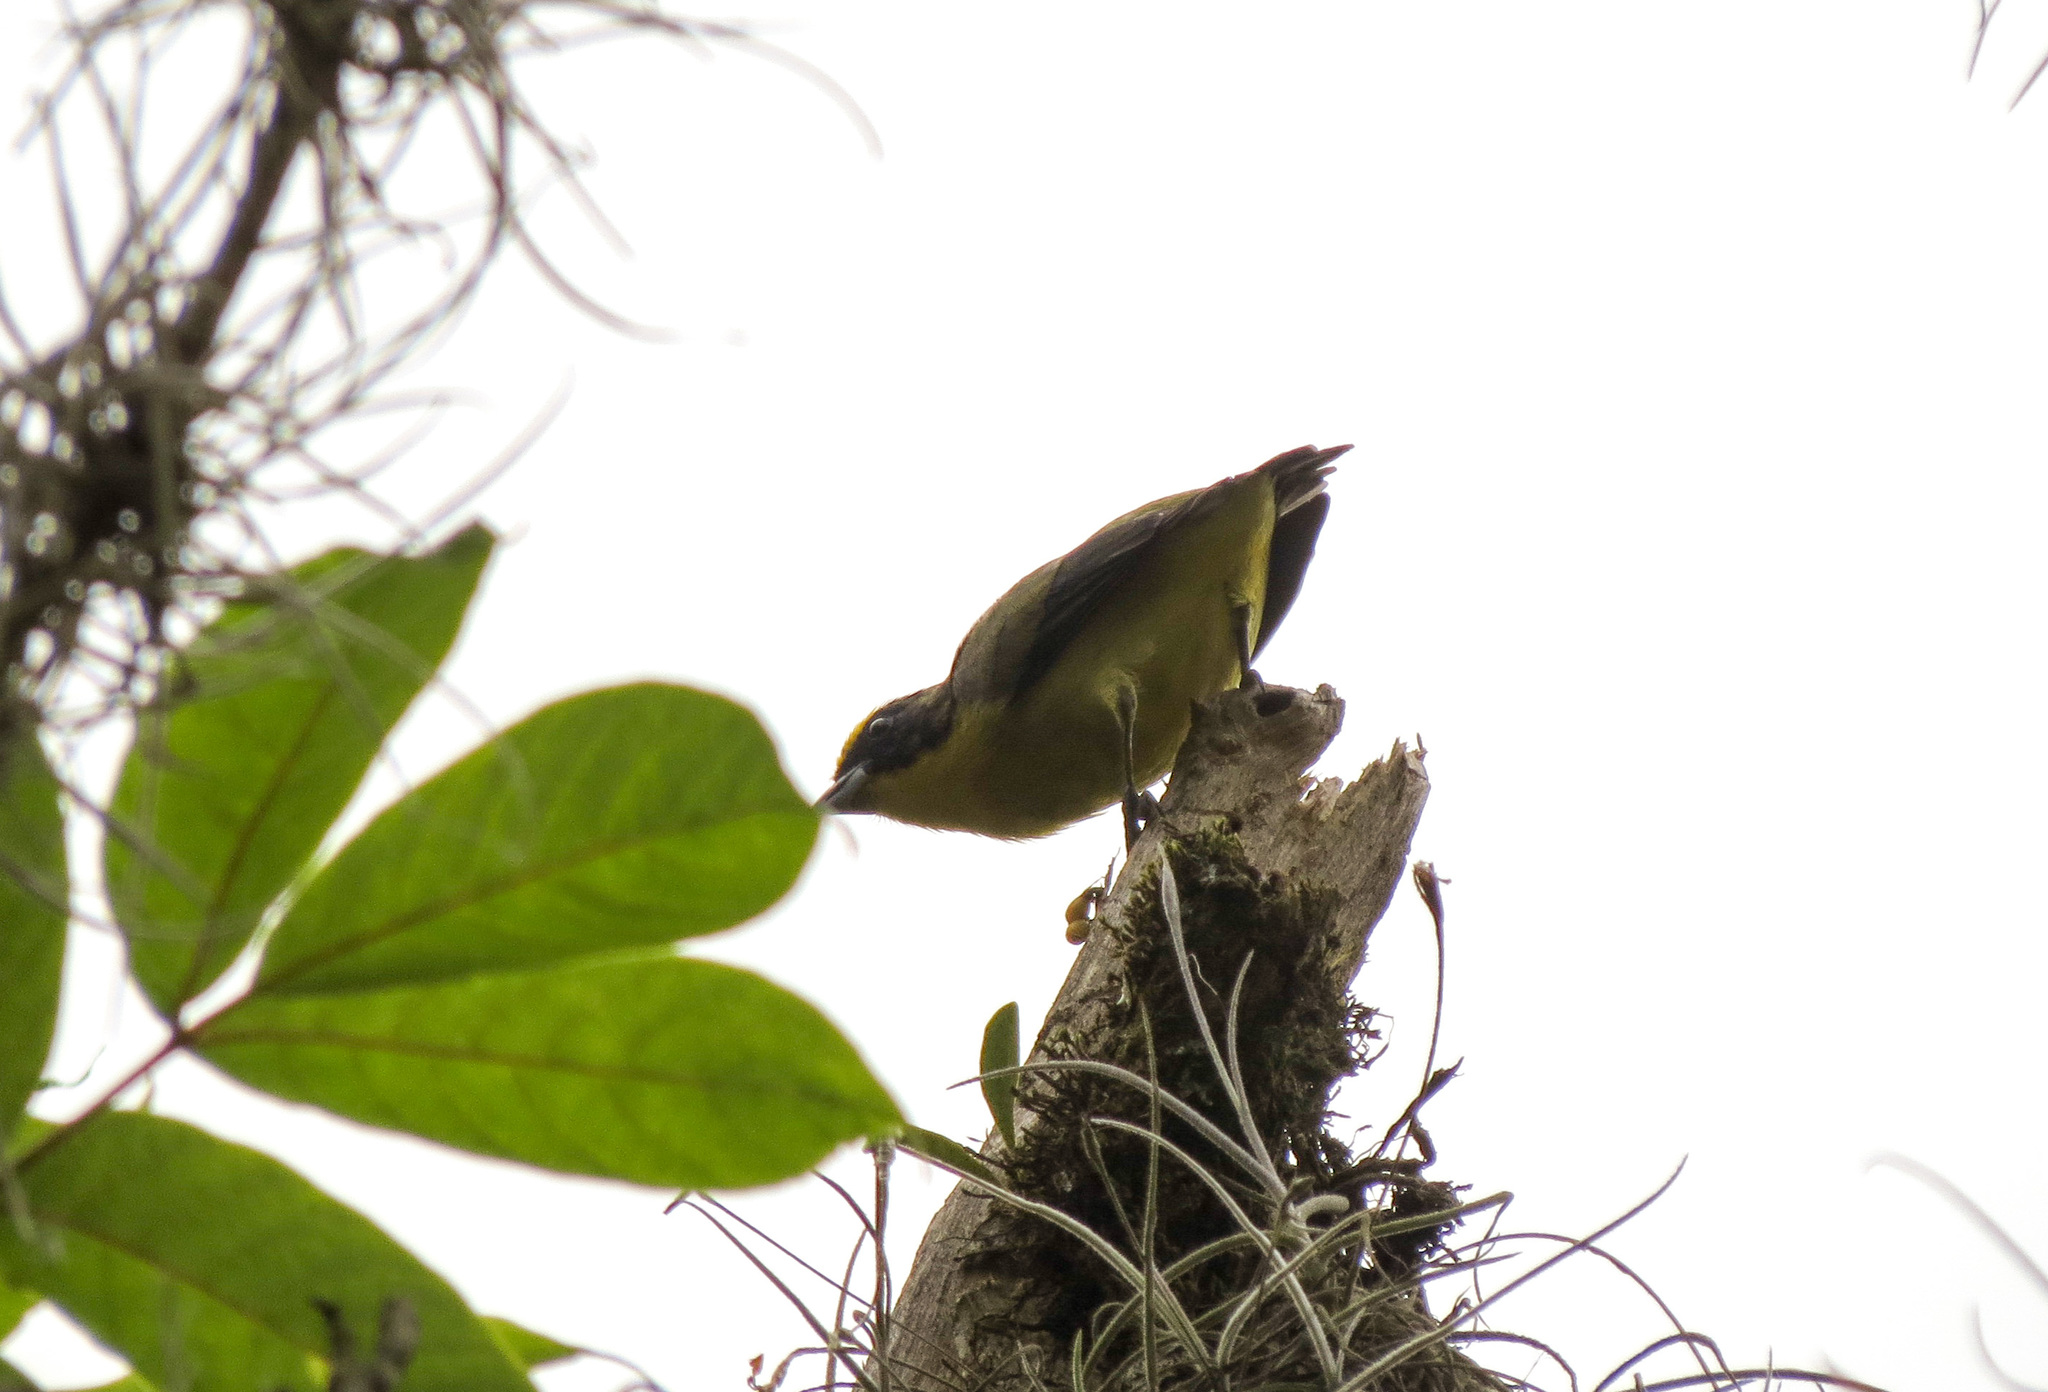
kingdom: Animalia
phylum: Chordata
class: Aves
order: Passeriformes
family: Fringillidae
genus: Euphonia
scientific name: Euphonia laniirostris
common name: Thick-billed euphonia
